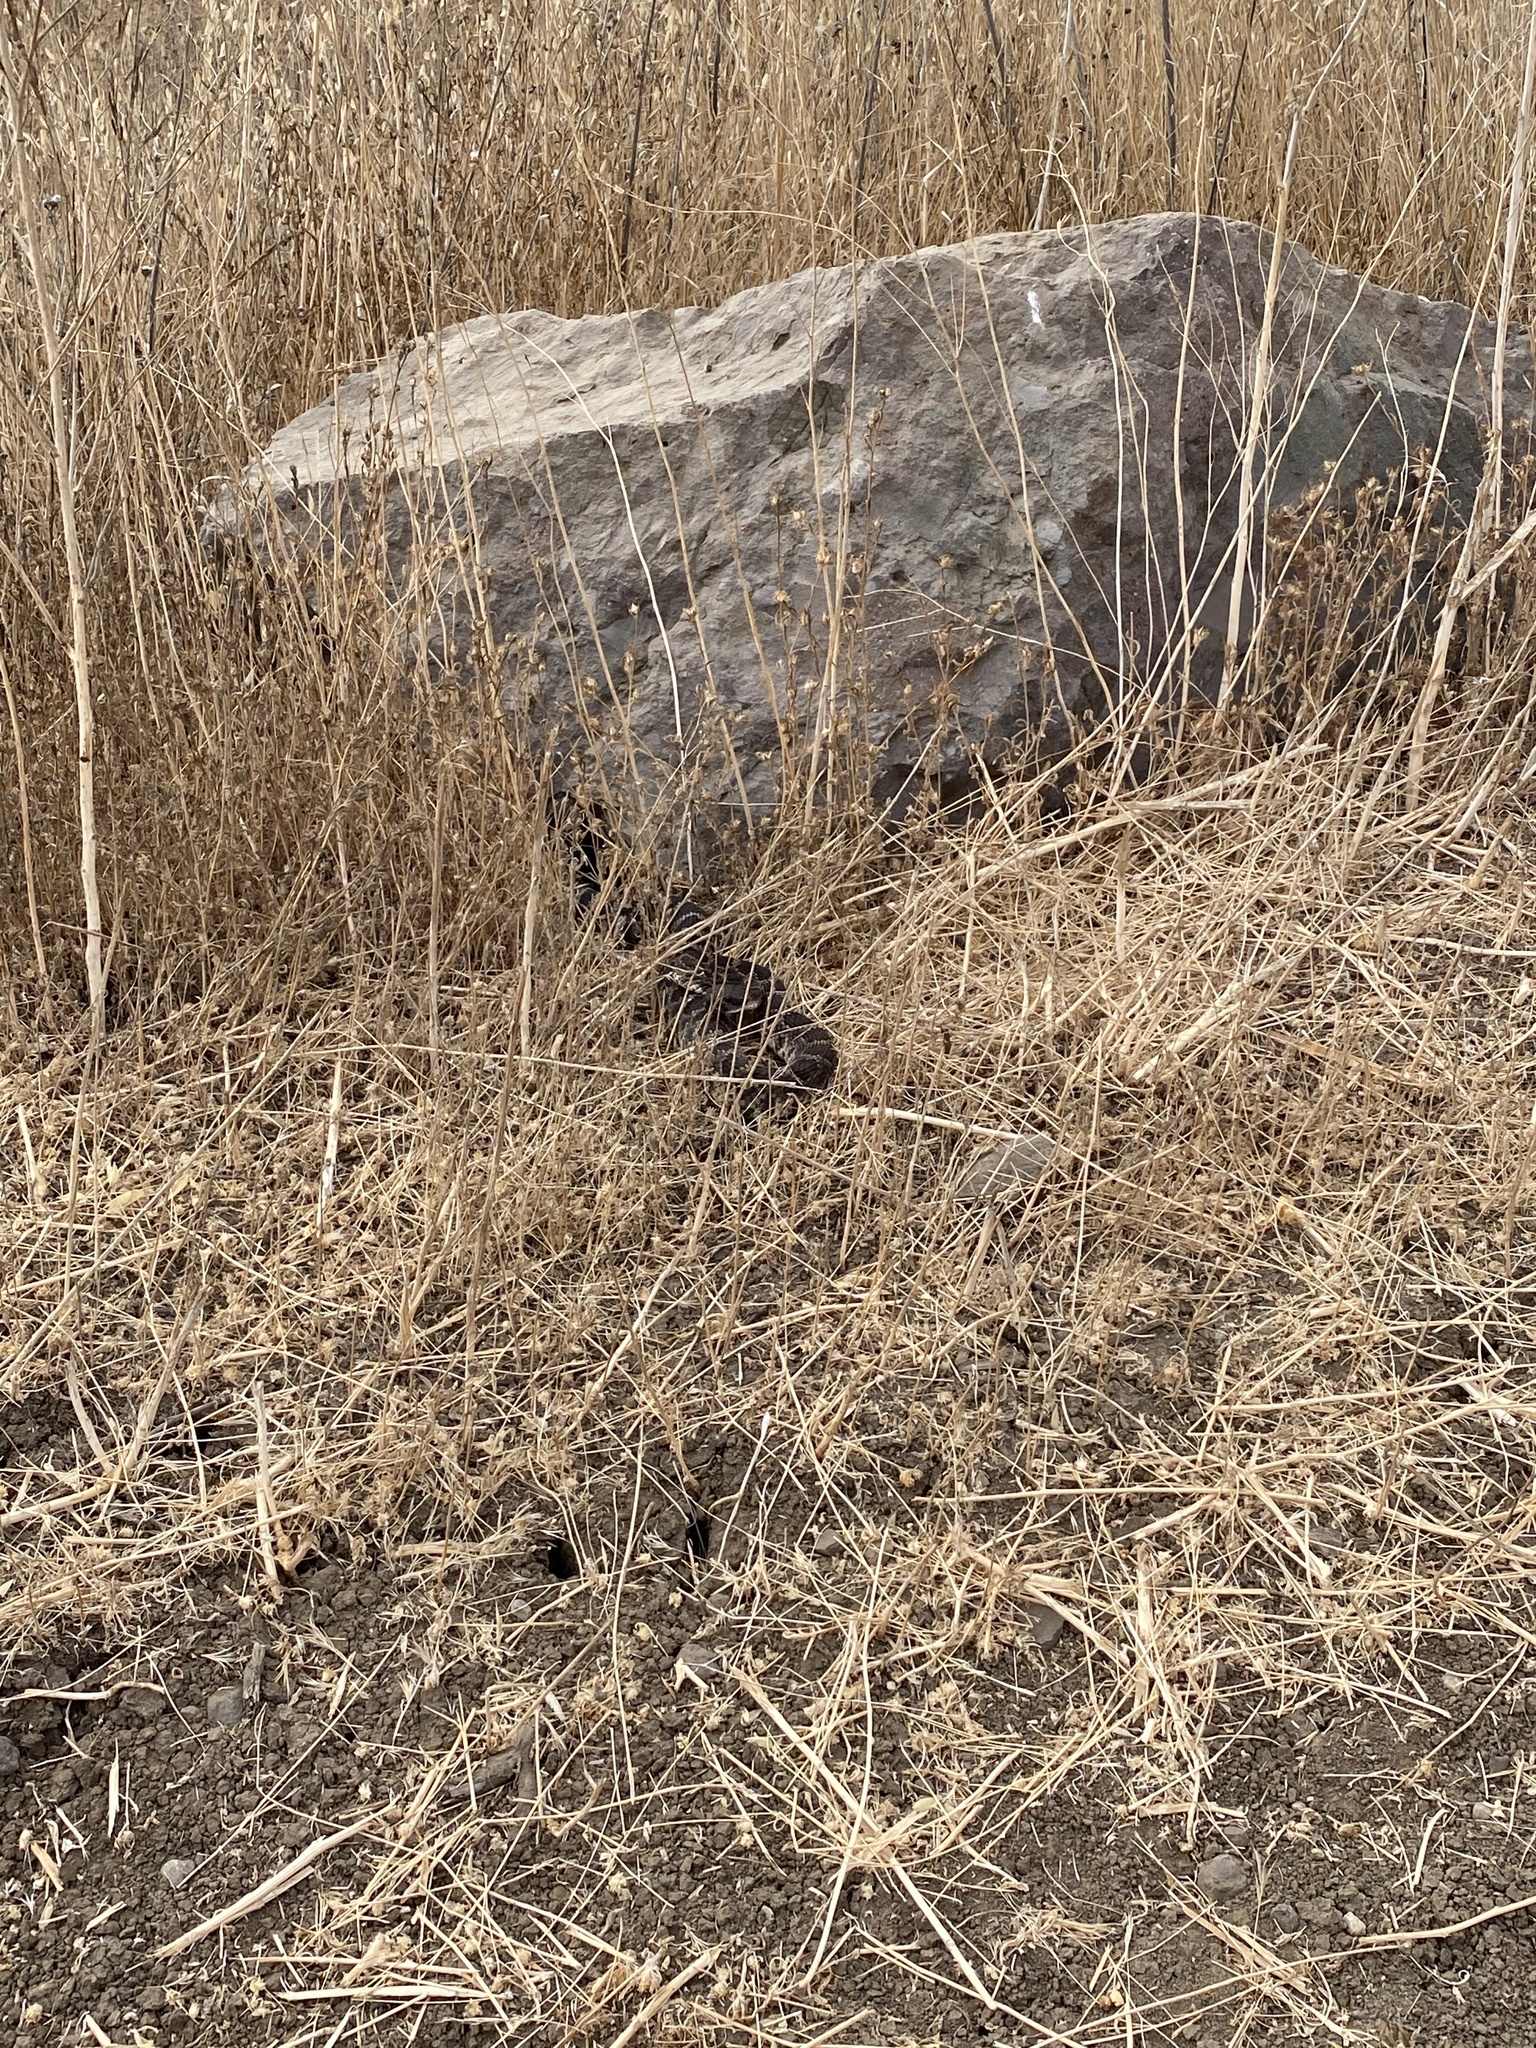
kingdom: Animalia
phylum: Chordata
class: Squamata
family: Viperidae
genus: Crotalus
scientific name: Crotalus oreganus
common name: Abyssus
